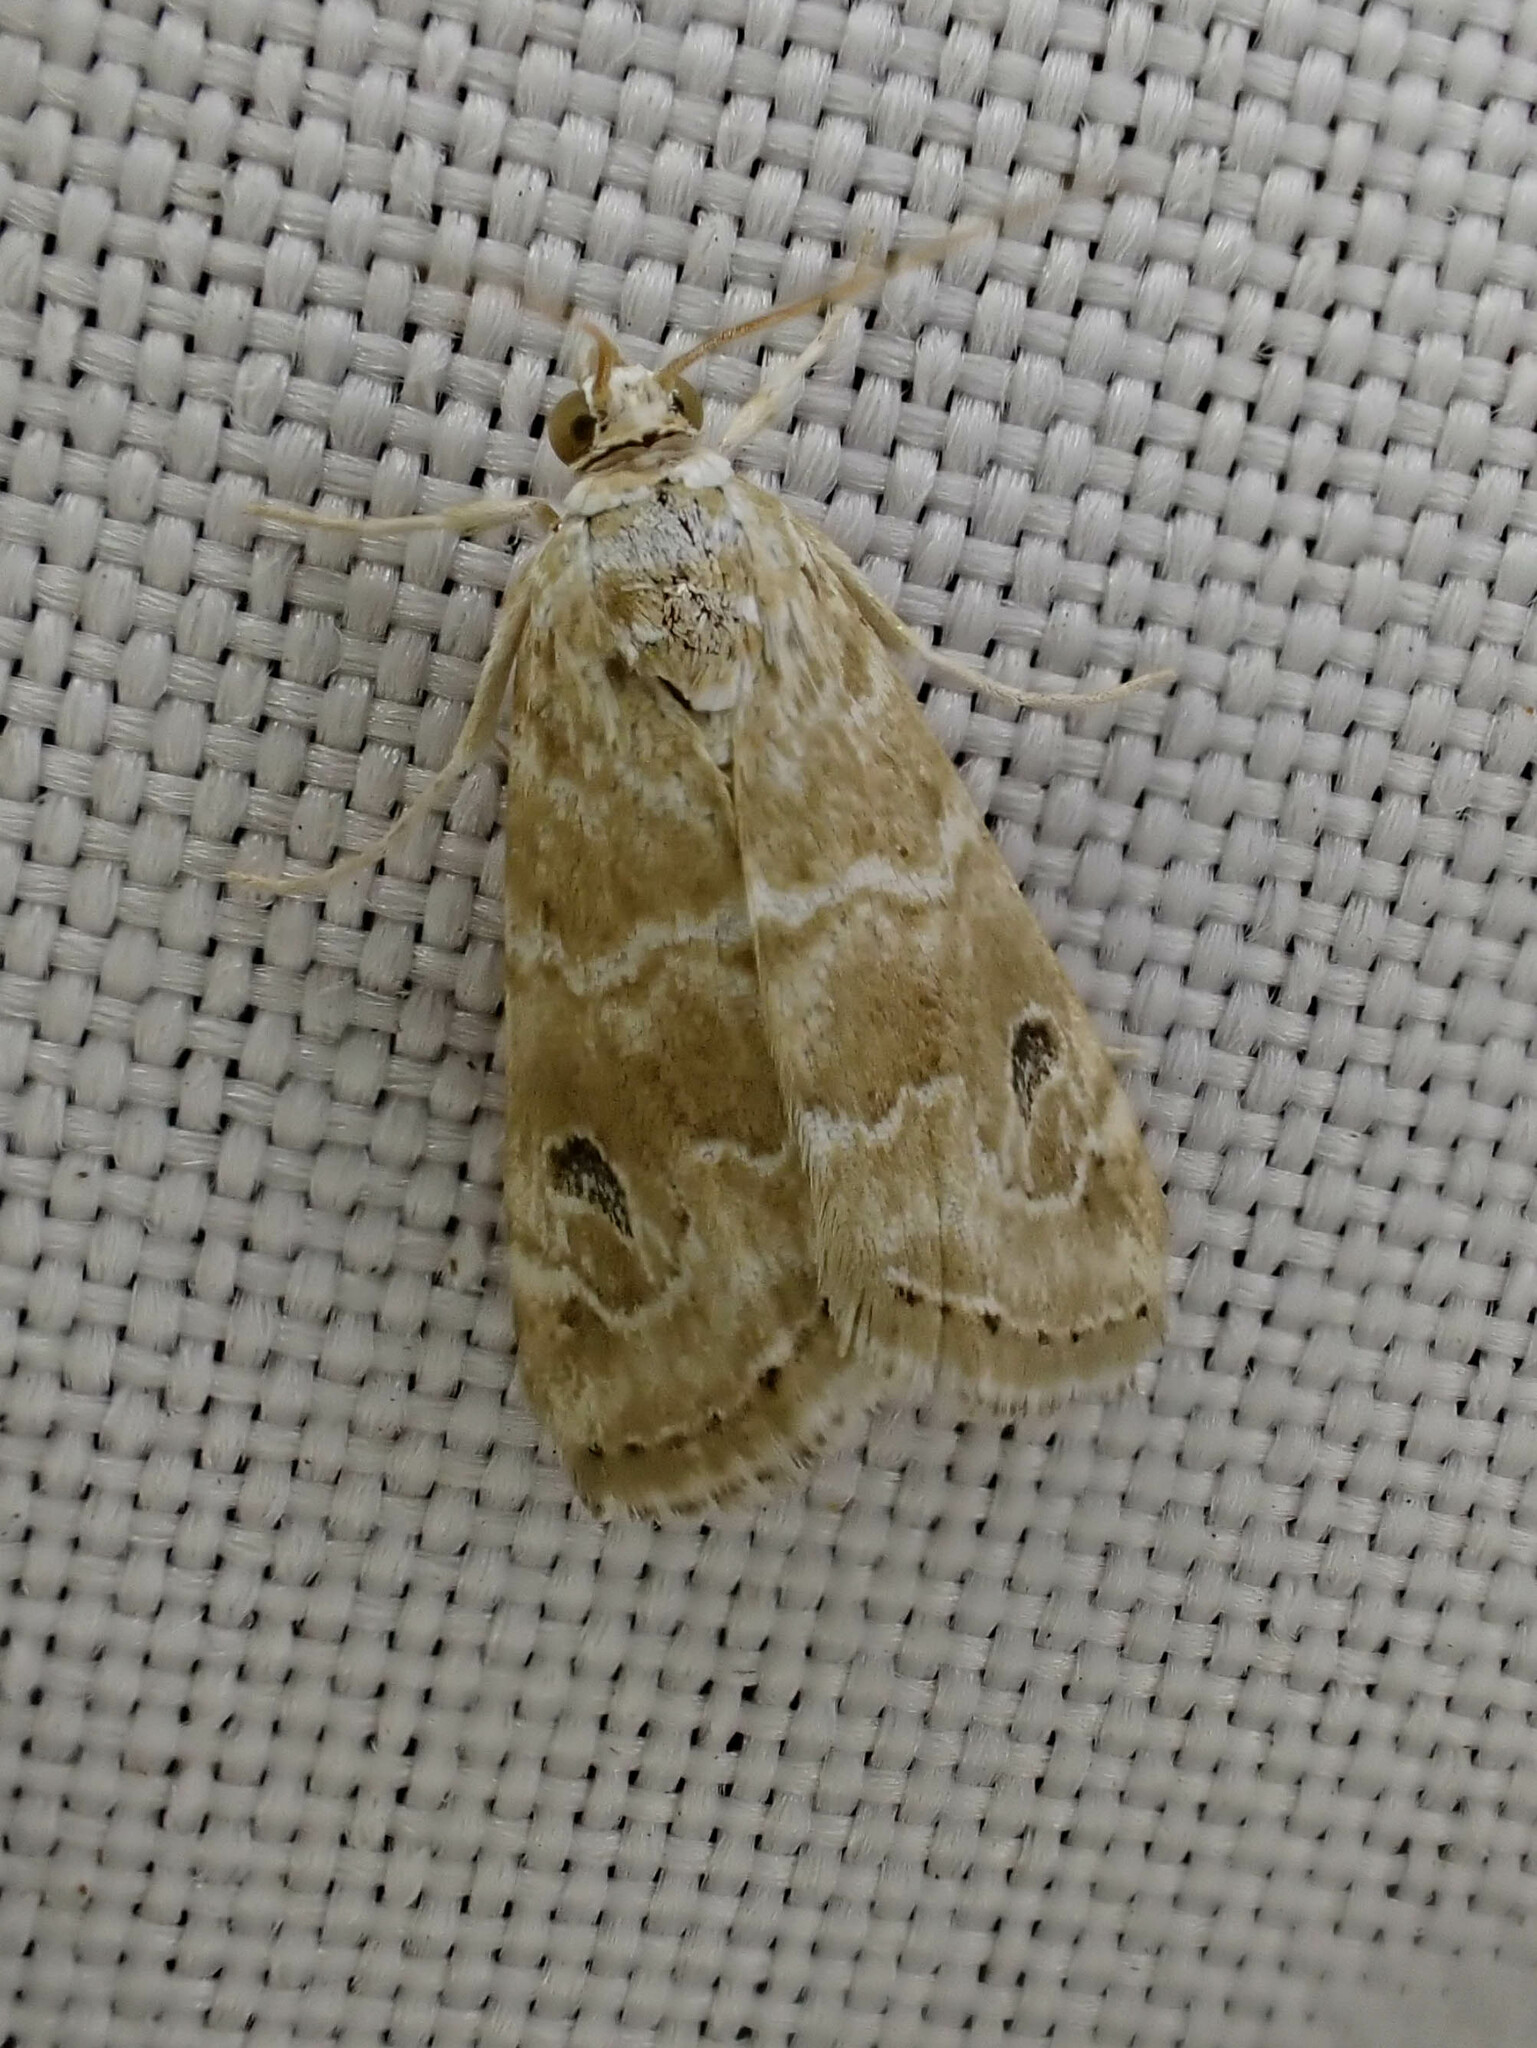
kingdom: Animalia
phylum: Arthropoda
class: Insecta
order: Lepidoptera
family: Crambidae
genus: Hellula
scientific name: Hellula rogatalis
